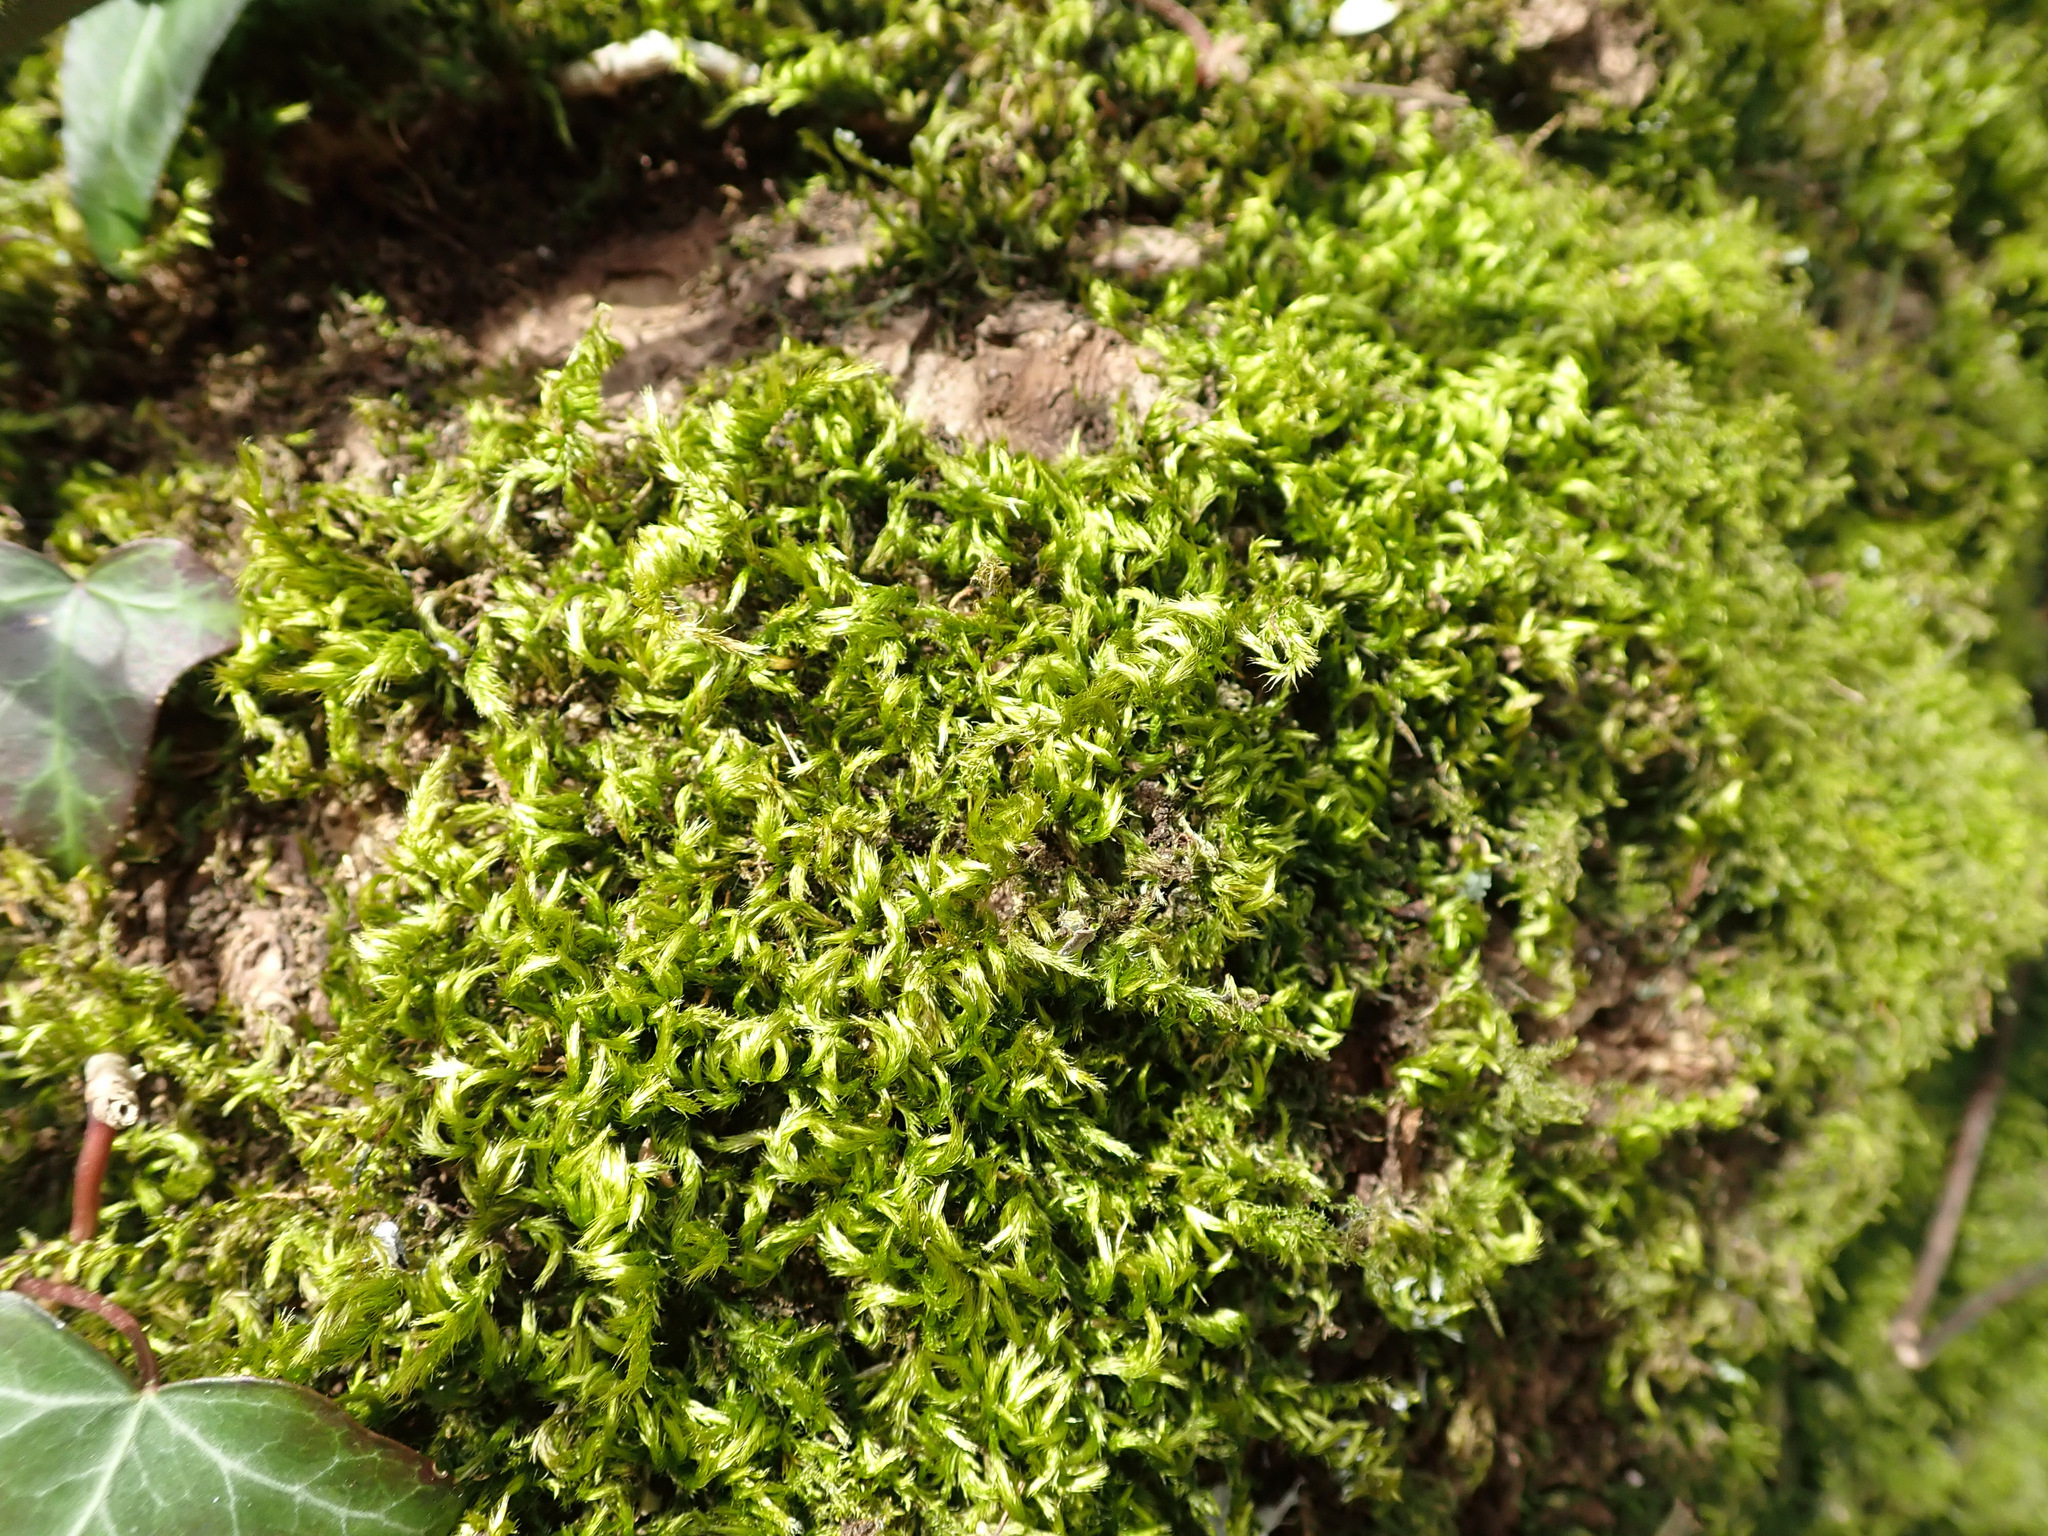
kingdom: Plantae
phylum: Bryophyta
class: Bryopsida
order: Hypnales
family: Brachytheciaceae
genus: Homalothecium
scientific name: Homalothecium sericeum
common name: Silky wall feather-moss
